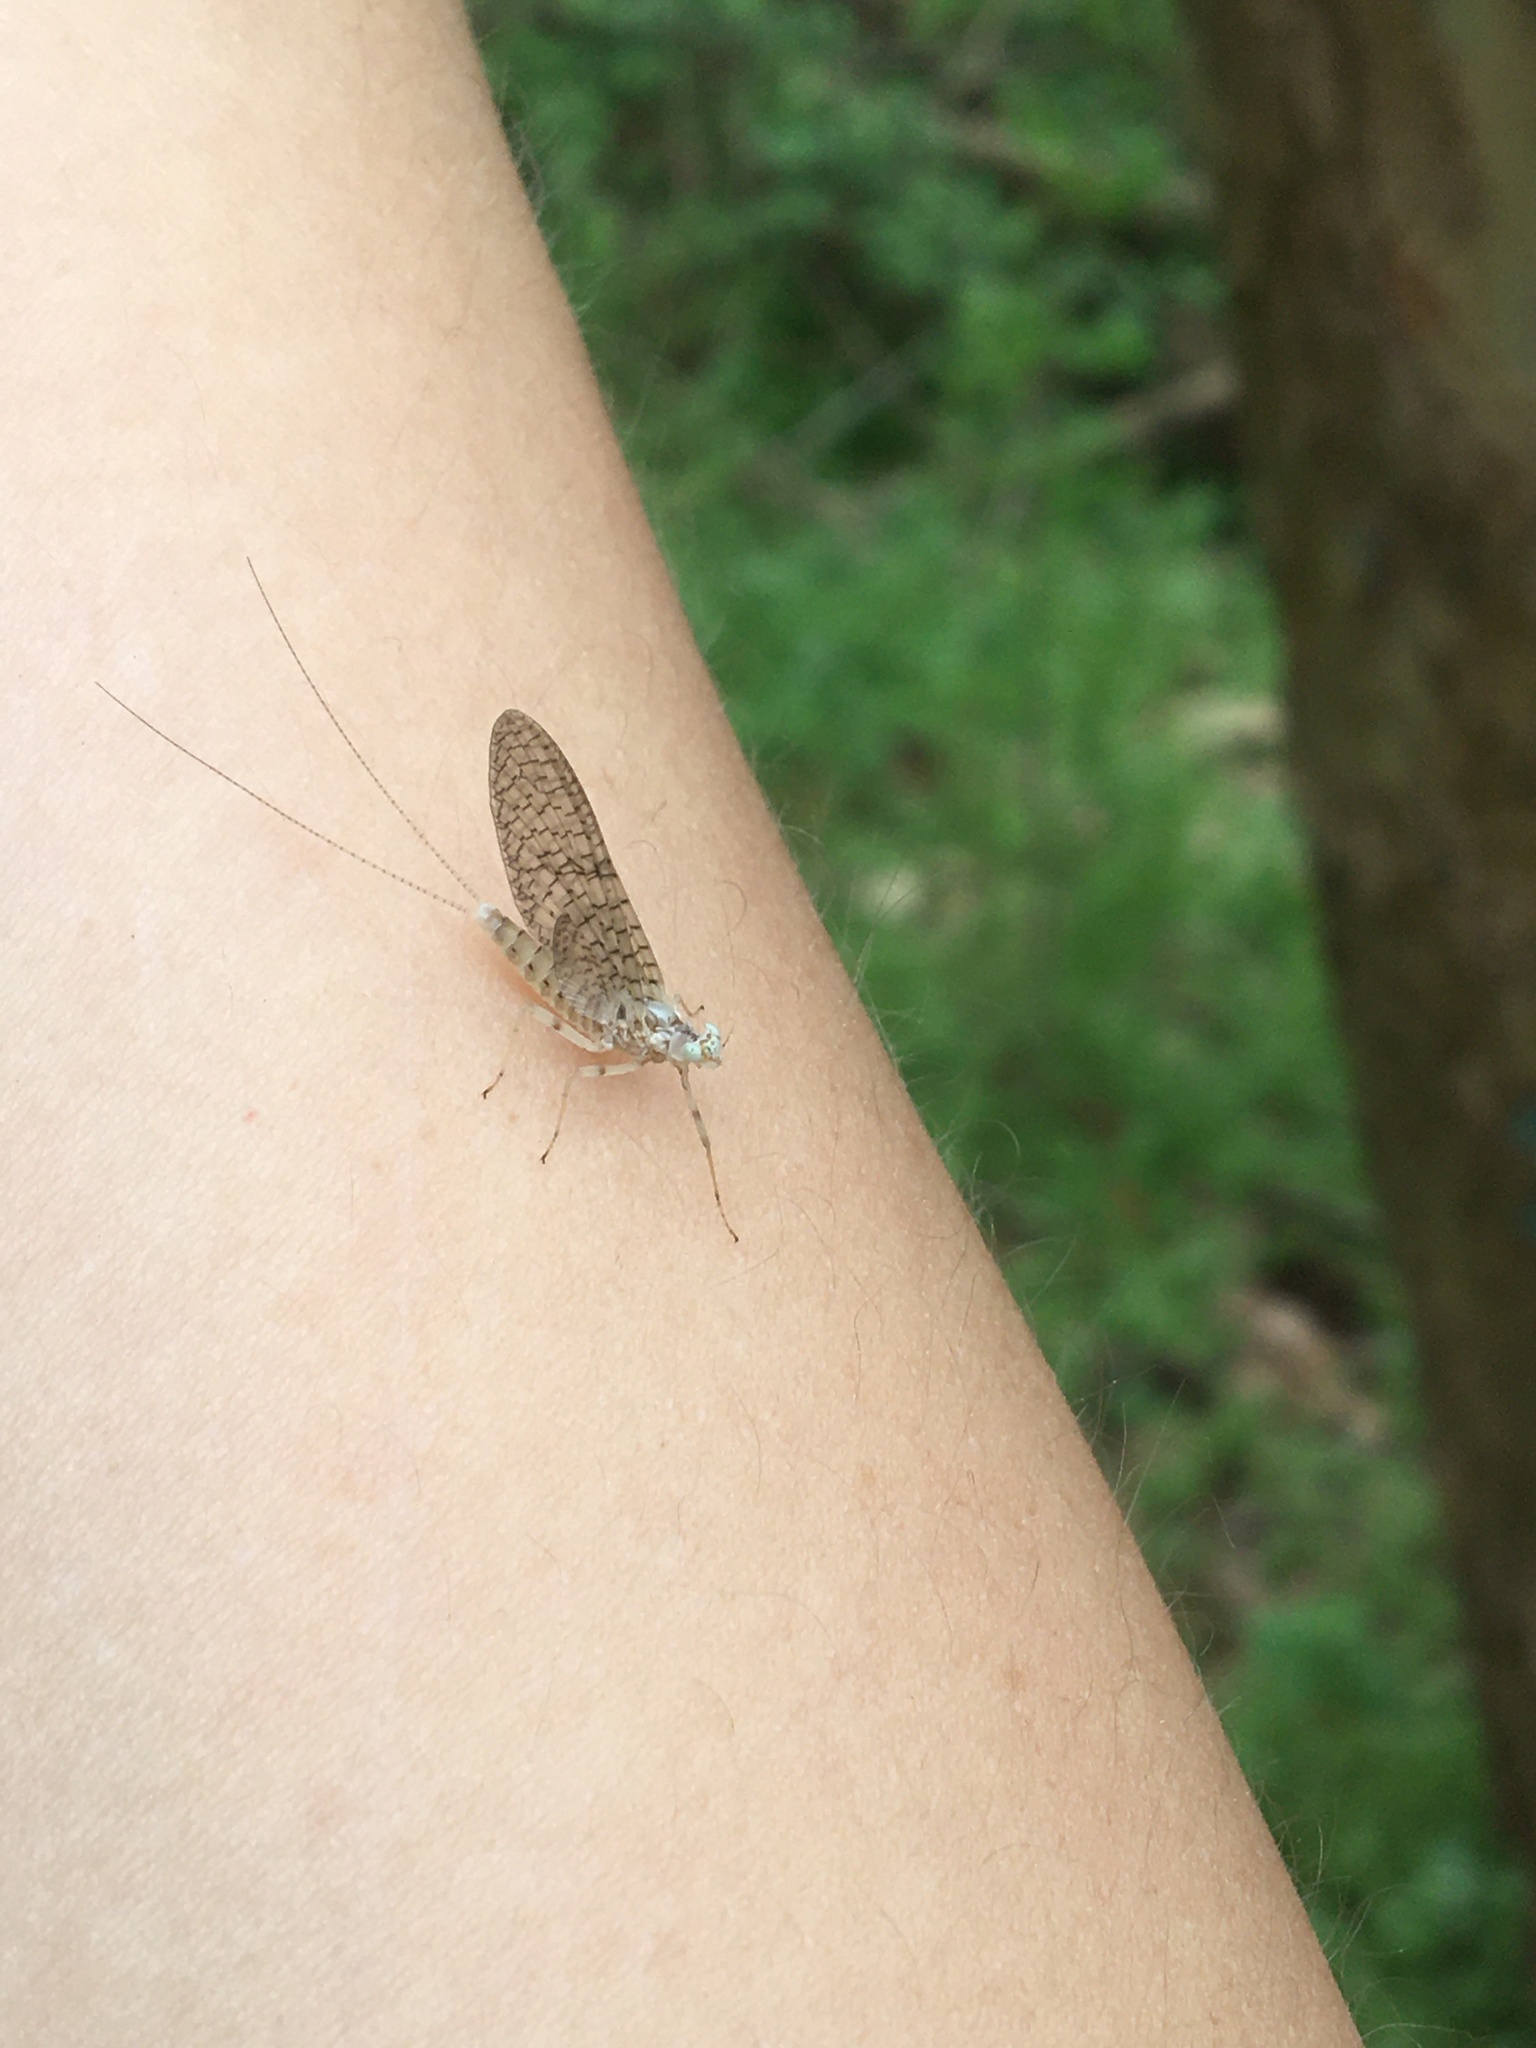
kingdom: Animalia
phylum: Arthropoda
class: Insecta
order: Ephemeroptera
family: Heptageniidae
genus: Maccaffertium
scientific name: Maccaffertium pulchellum
